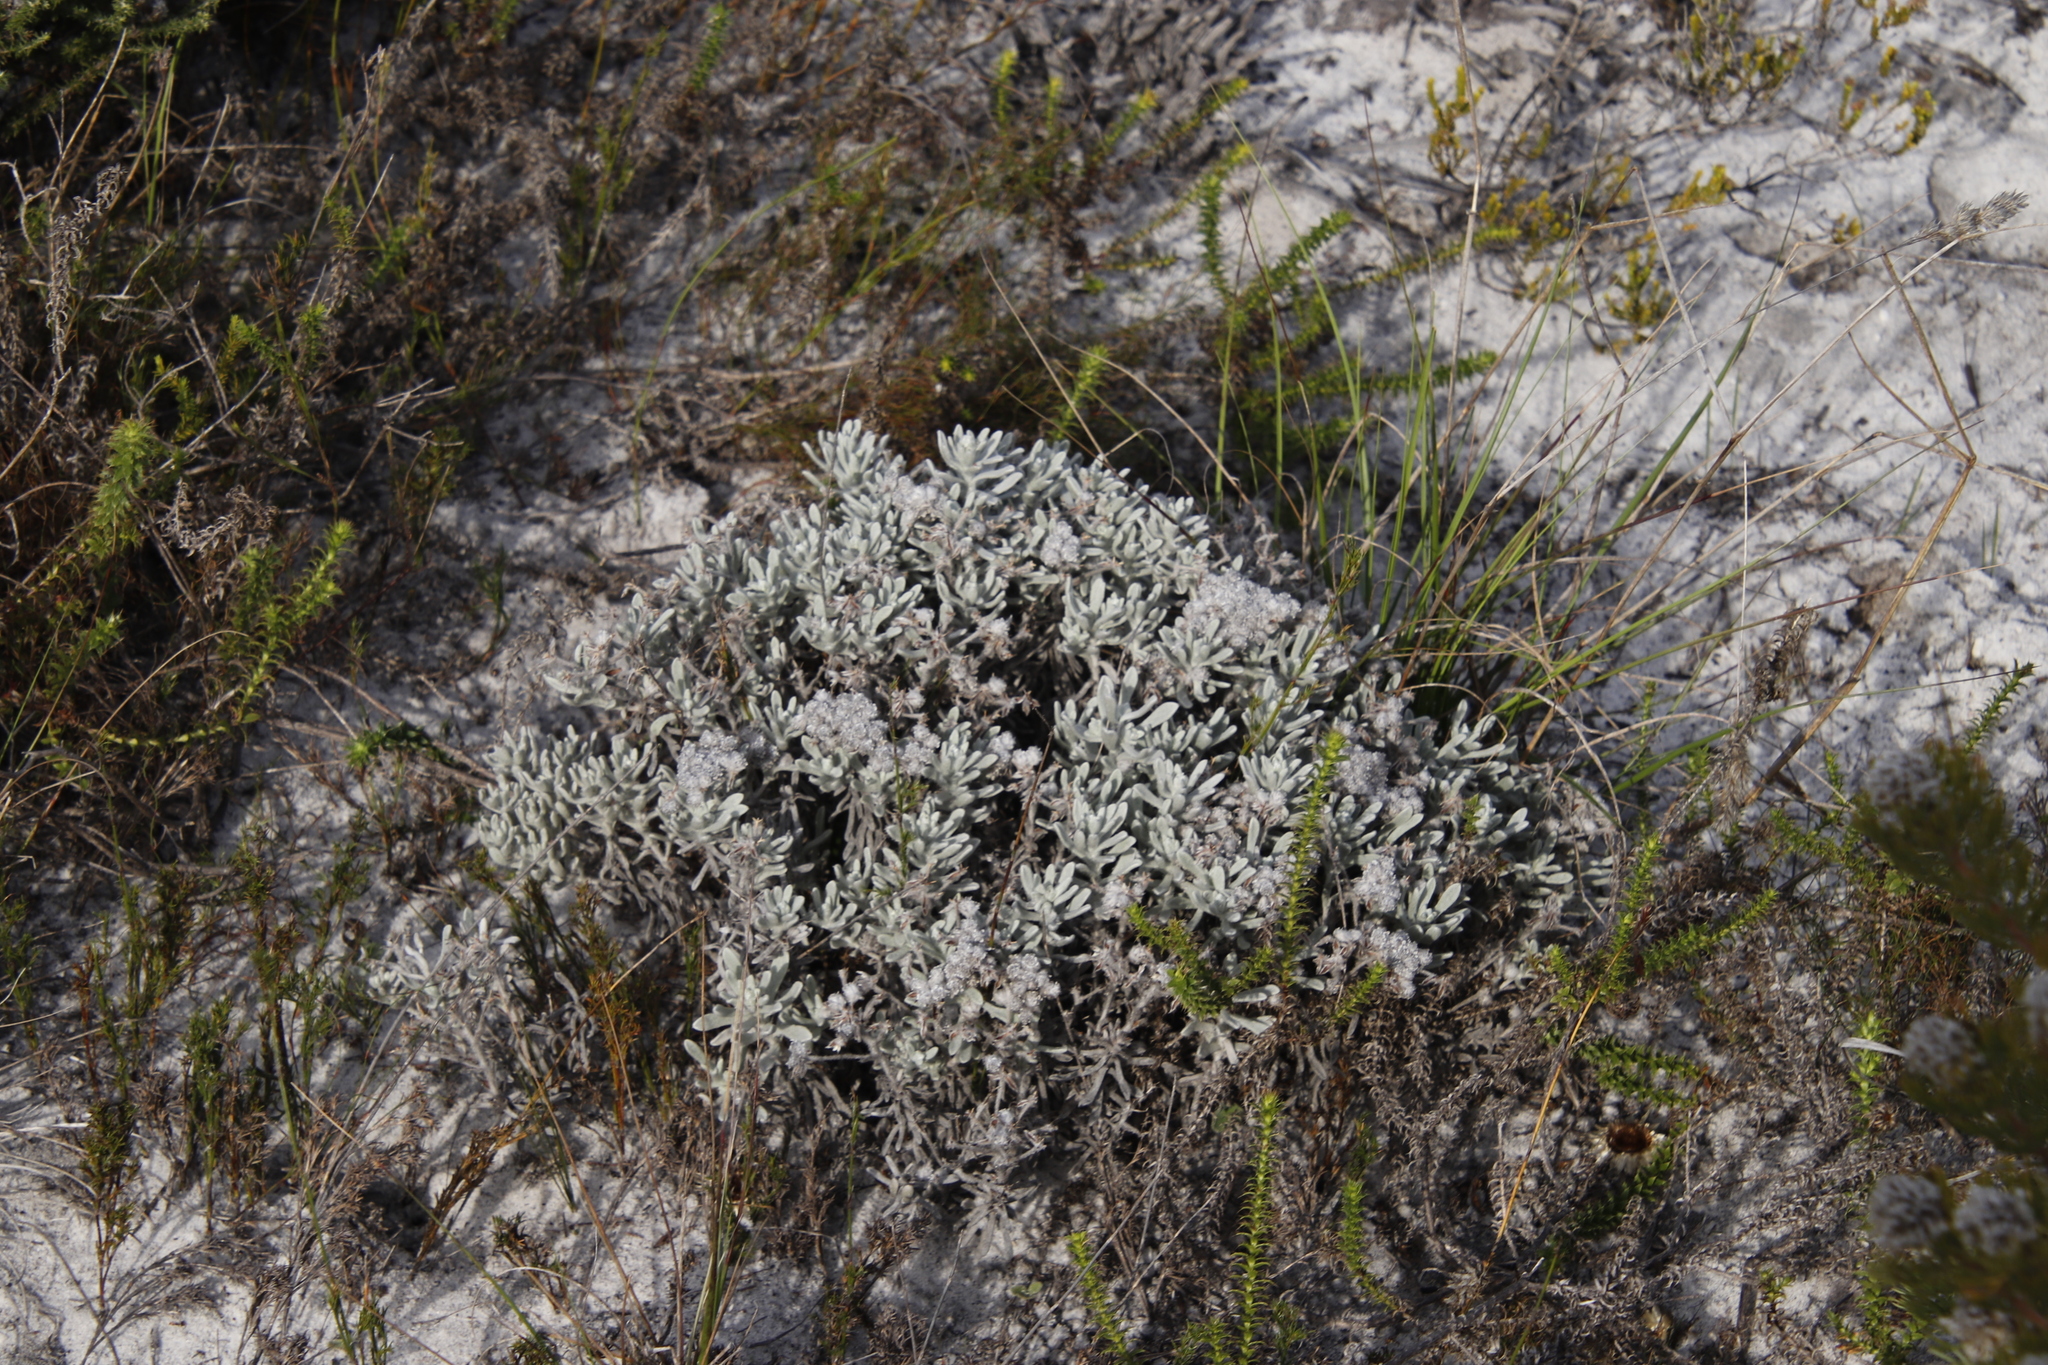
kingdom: Plantae
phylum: Tracheophyta
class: Magnoliopsida
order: Asterales
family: Asteraceae
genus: Petalacte
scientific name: Petalacte coronata
